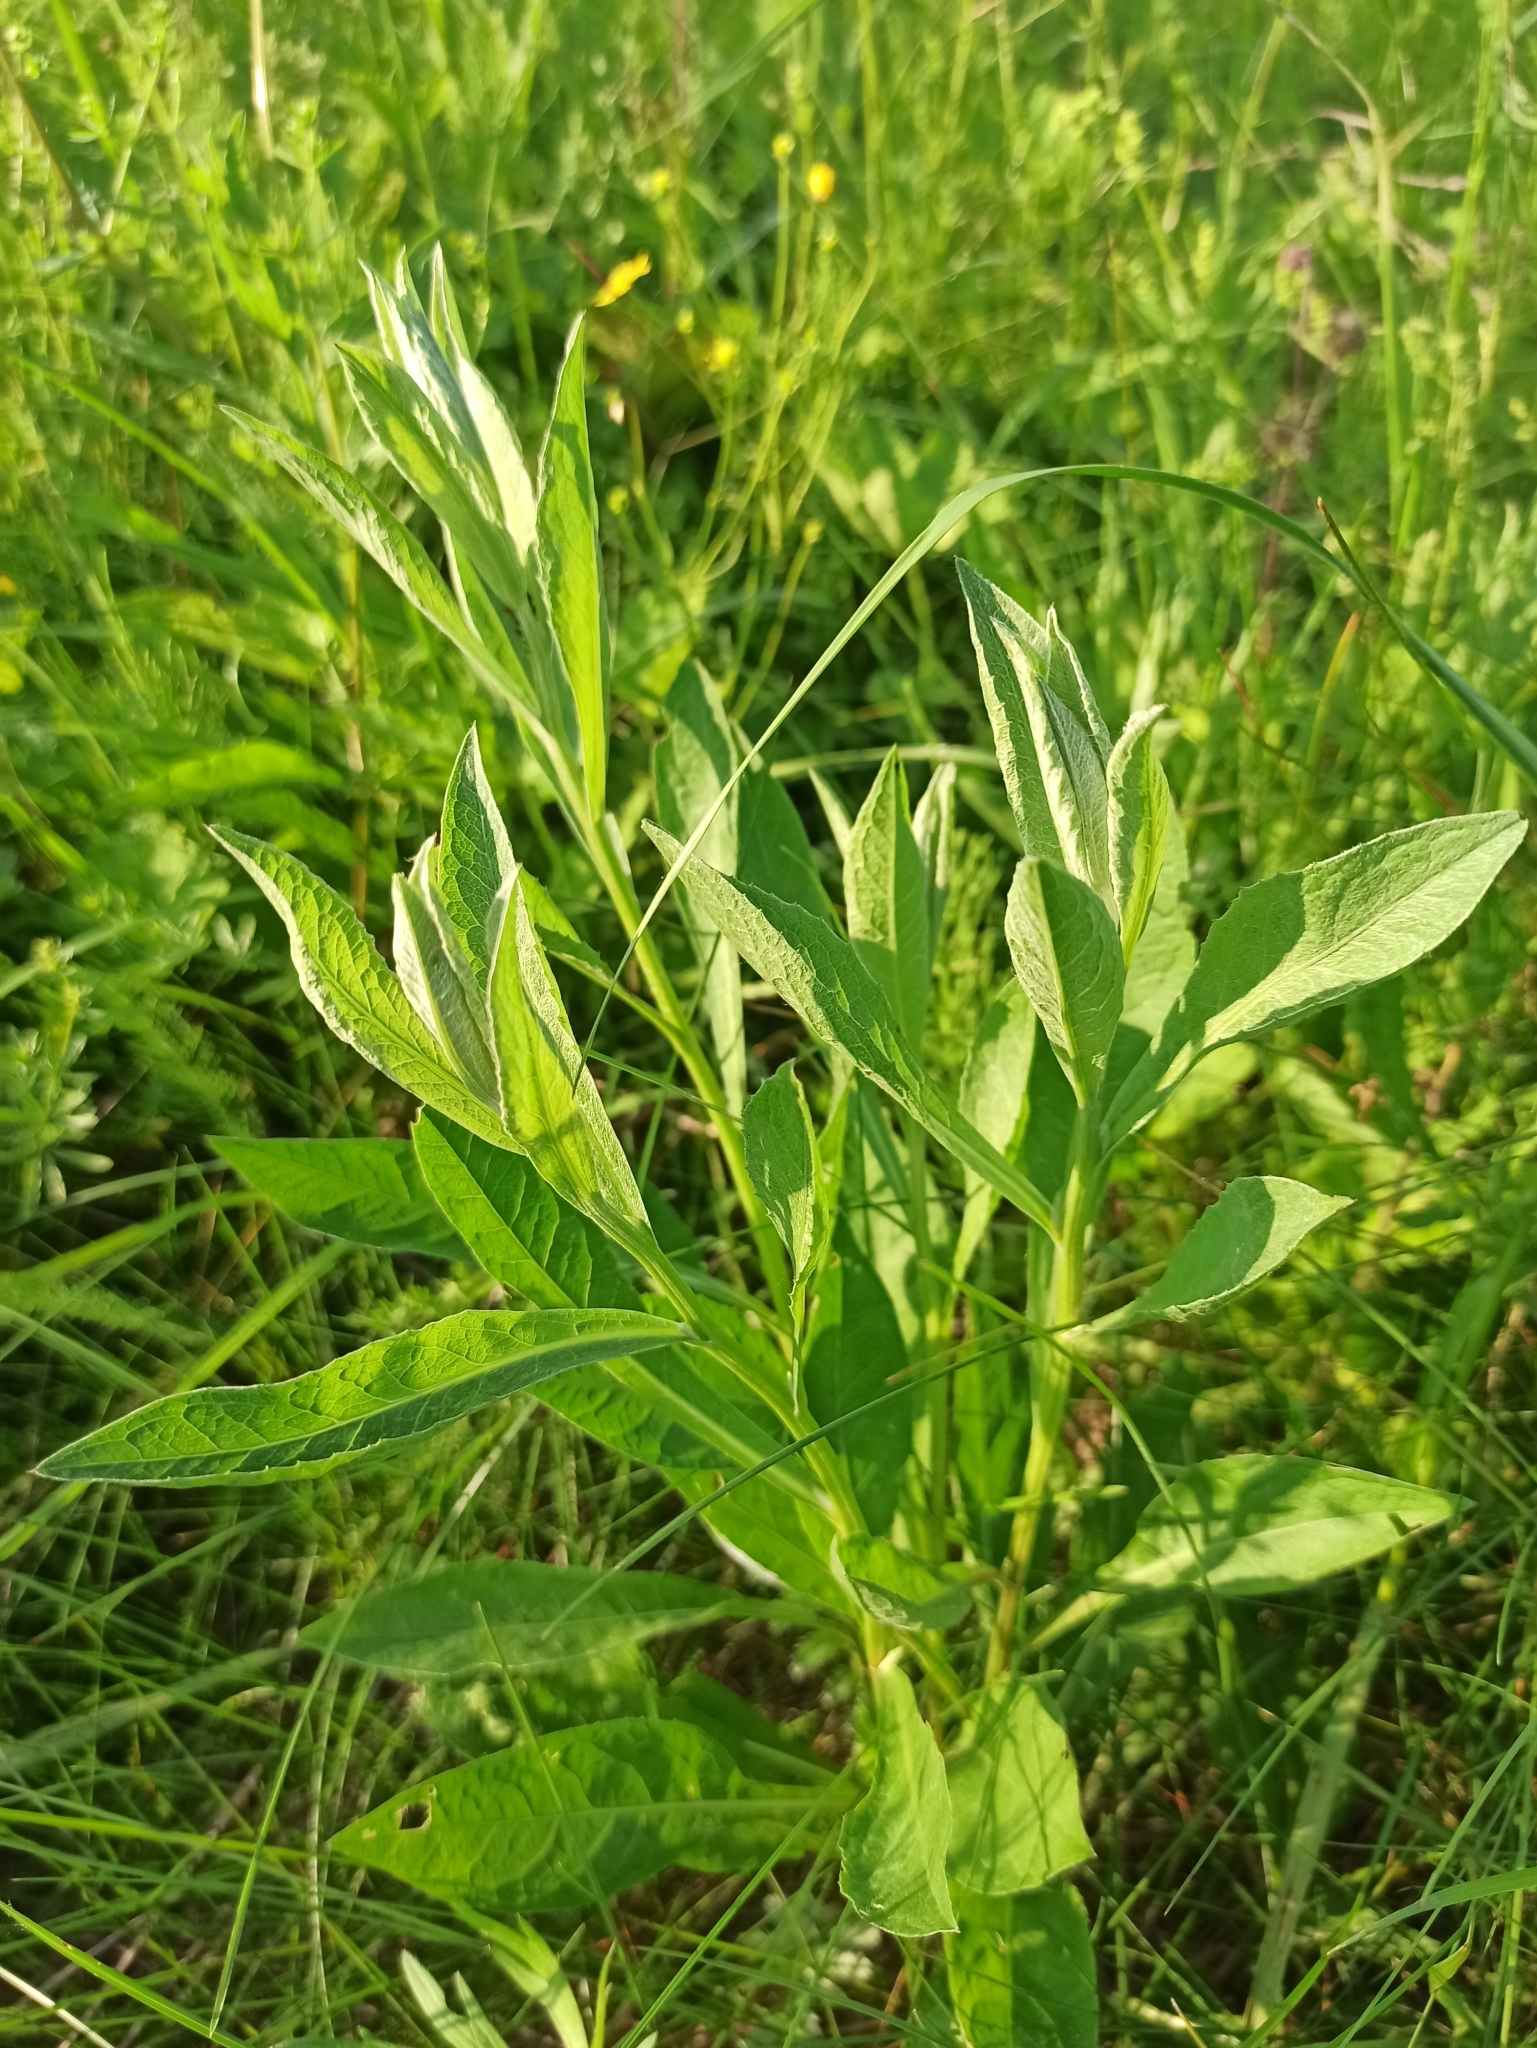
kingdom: Plantae
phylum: Tracheophyta
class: Magnoliopsida
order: Asterales
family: Asteraceae
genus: Centaurea
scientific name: Centaurea jacea
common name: Brown knapweed
